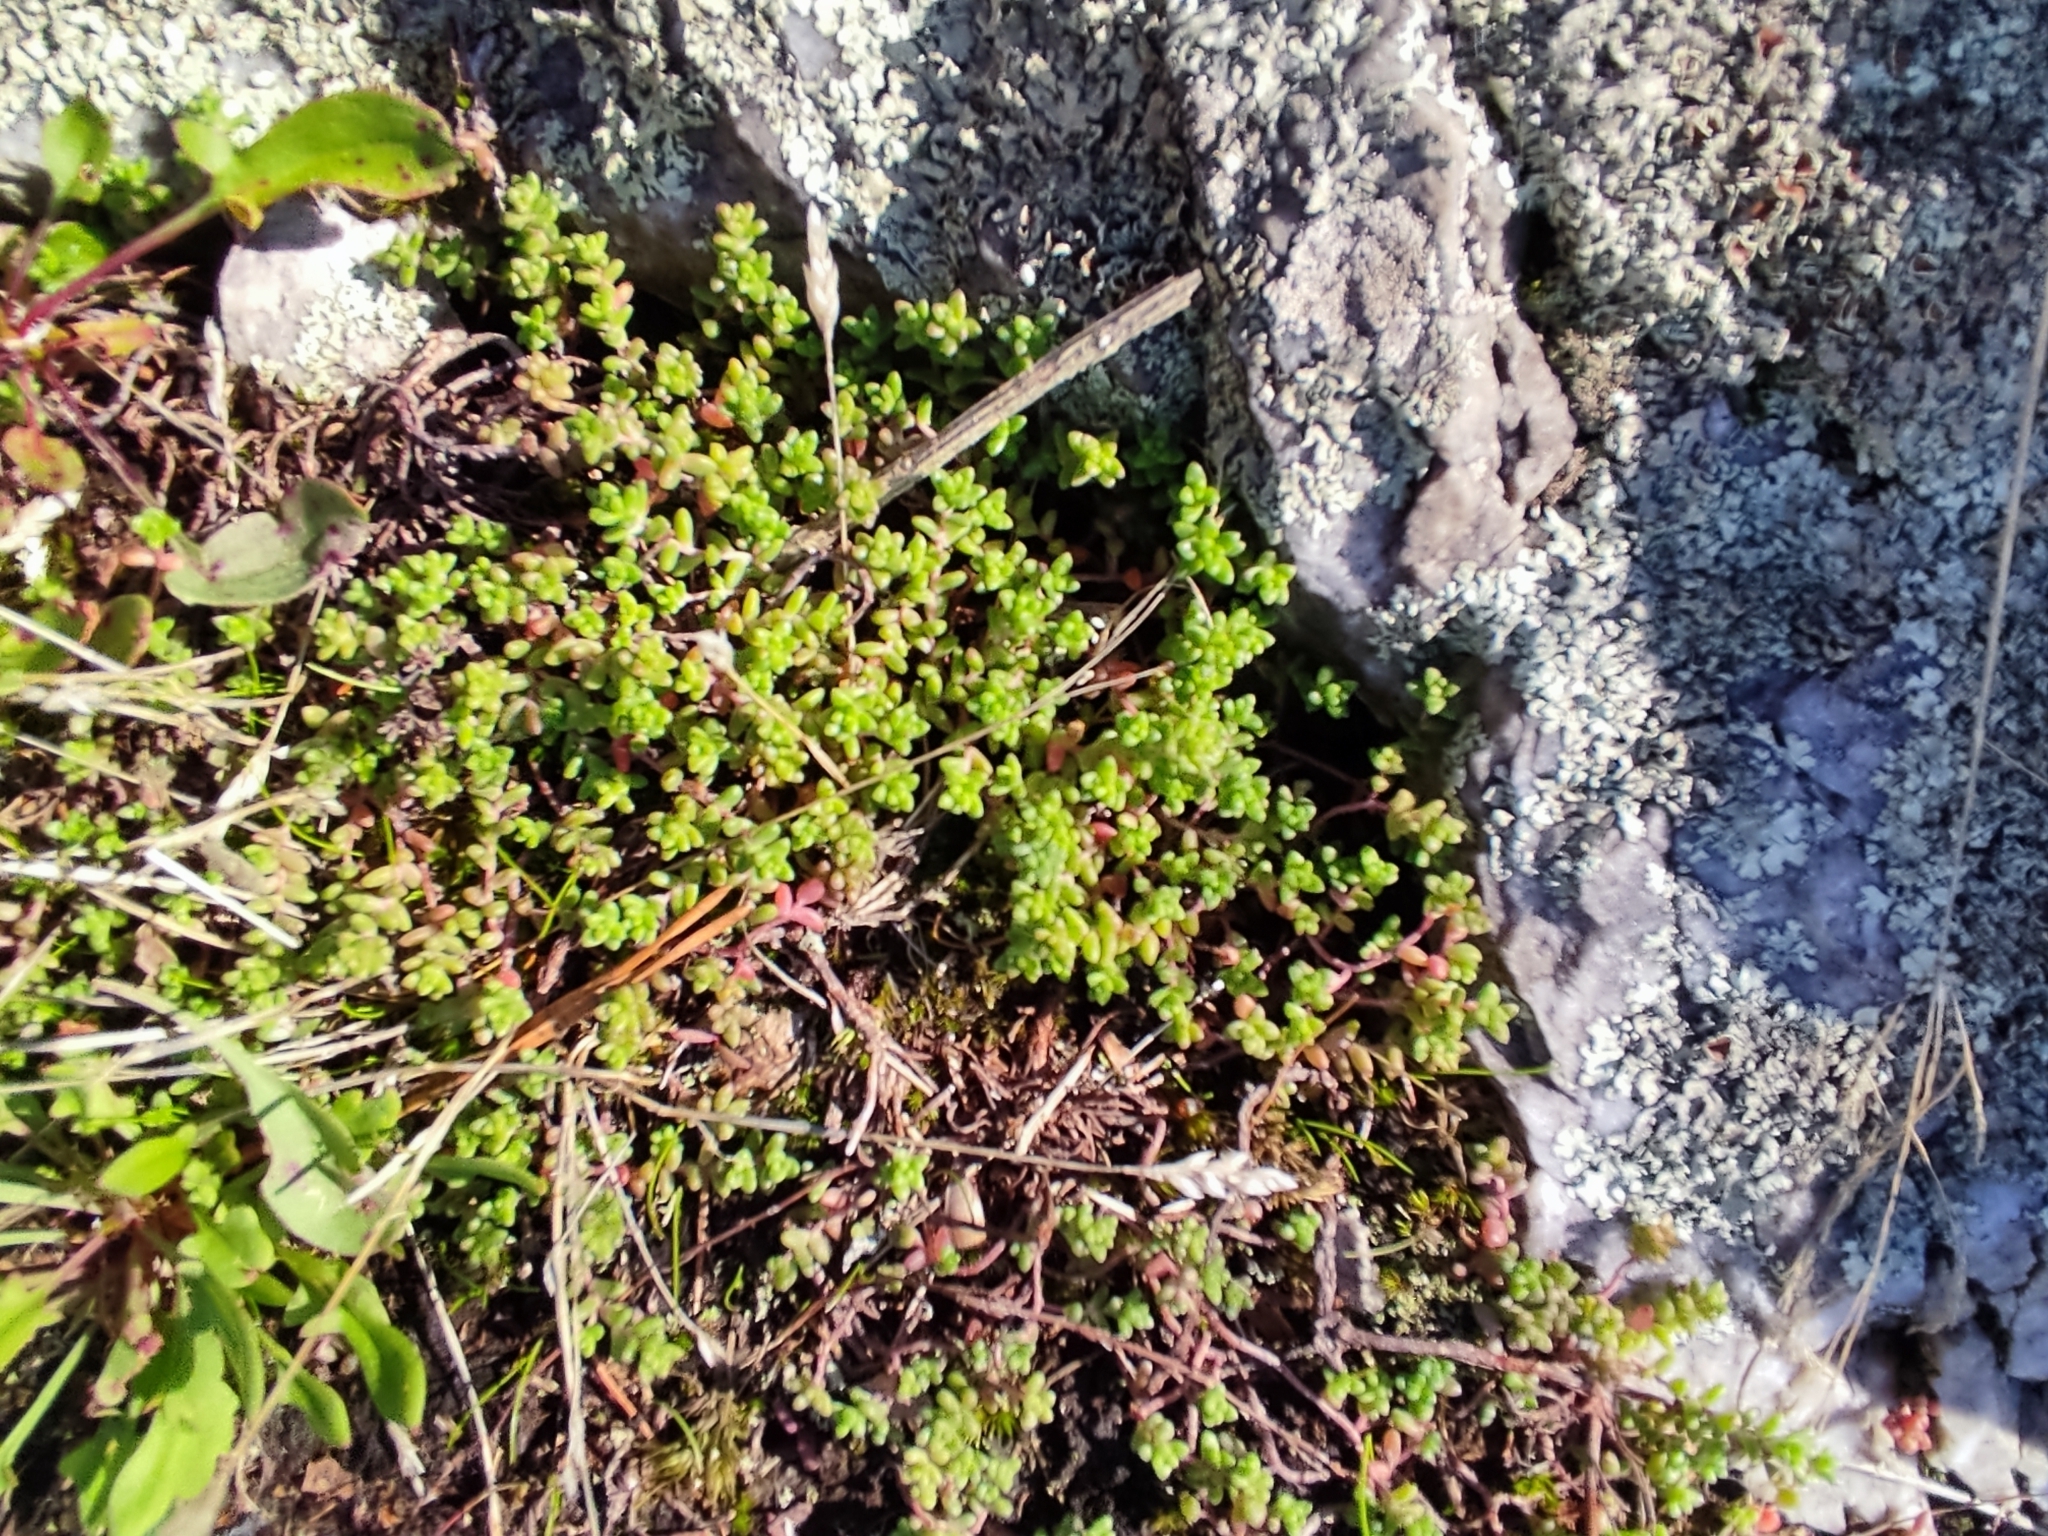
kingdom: Plantae
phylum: Tracheophyta
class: Magnoliopsida
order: Saxifragales
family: Crassulaceae
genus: Sedum
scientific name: Sedum anglicum
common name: English stonecrop
